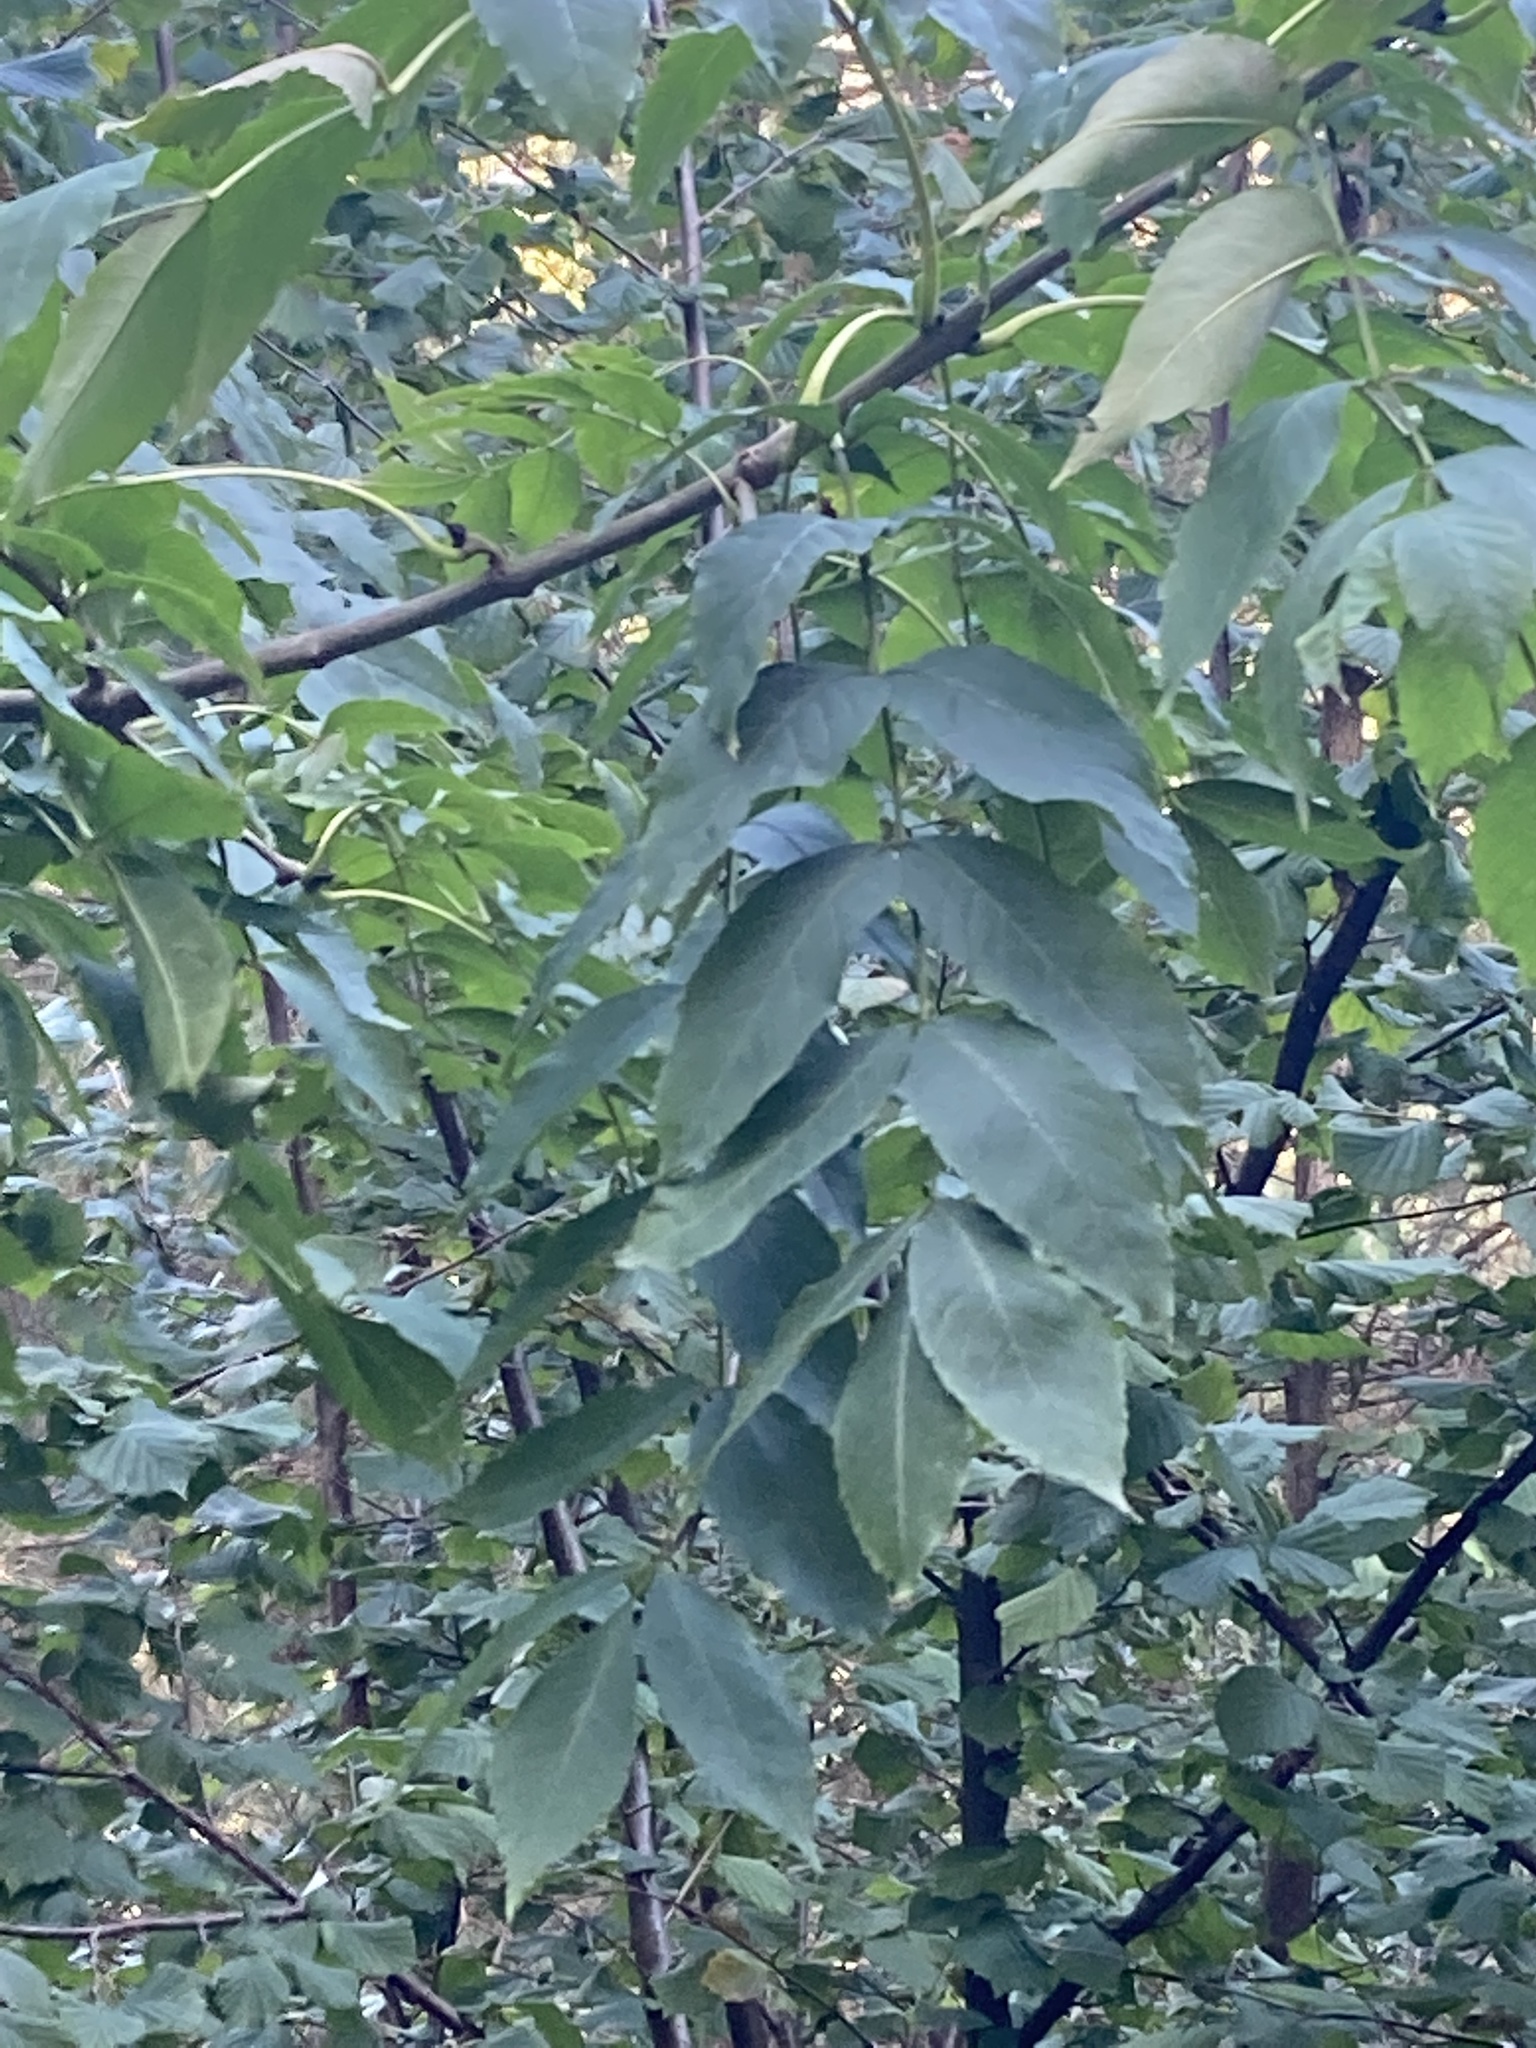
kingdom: Plantae
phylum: Tracheophyta
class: Magnoliopsida
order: Lamiales
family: Oleaceae
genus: Fraxinus
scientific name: Fraxinus excelsior
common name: European ash
